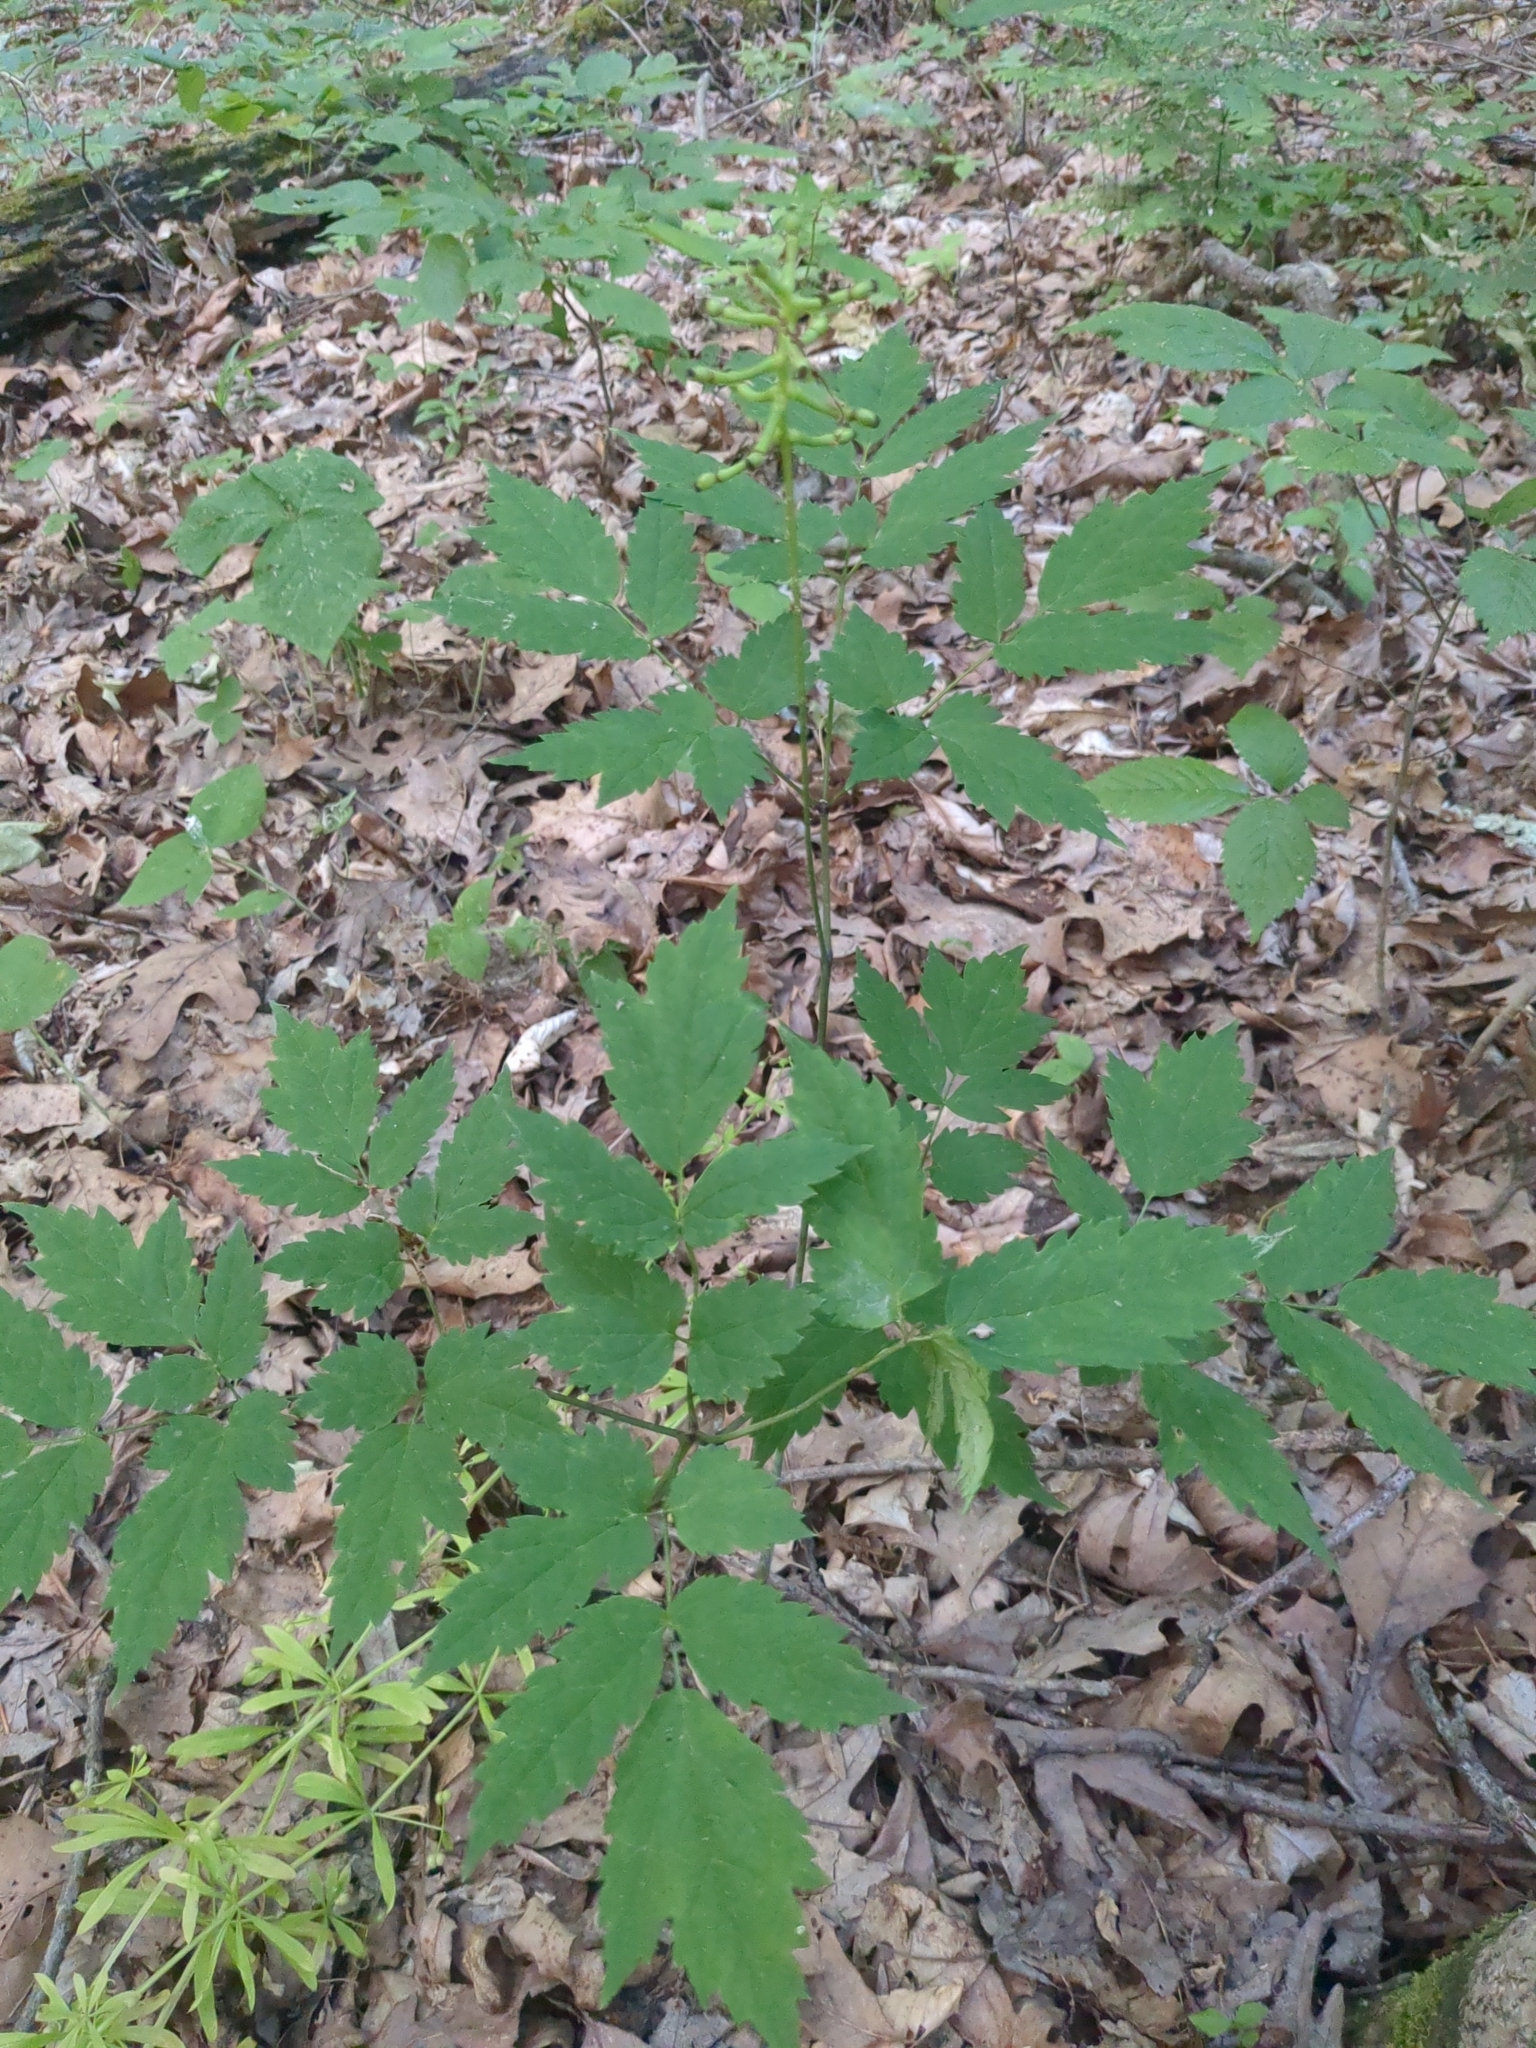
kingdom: Plantae
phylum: Tracheophyta
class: Magnoliopsida
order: Ranunculales
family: Ranunculaceae
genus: Actaea
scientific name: Actaea pachypoda
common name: Doll's-eyes
